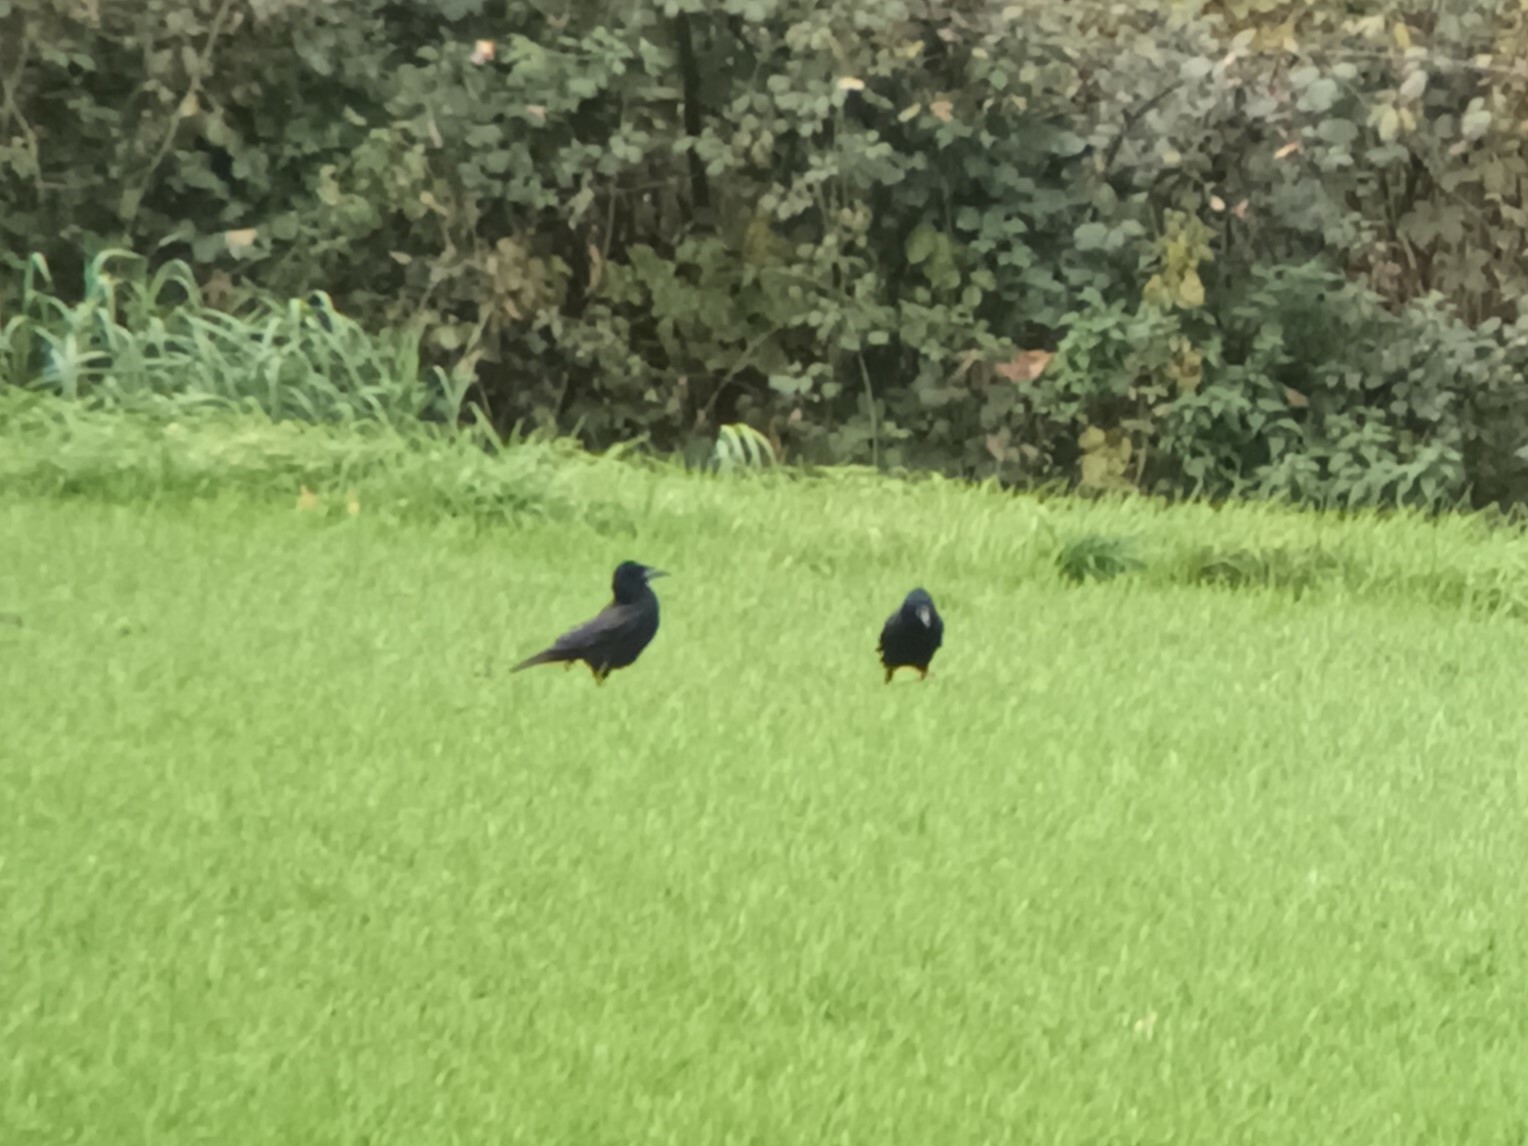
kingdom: Animalia
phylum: Chordata
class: Aves
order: Passeriformes
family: Corvidae
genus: Corvus
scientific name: Corvus frugilegus
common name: Rook
